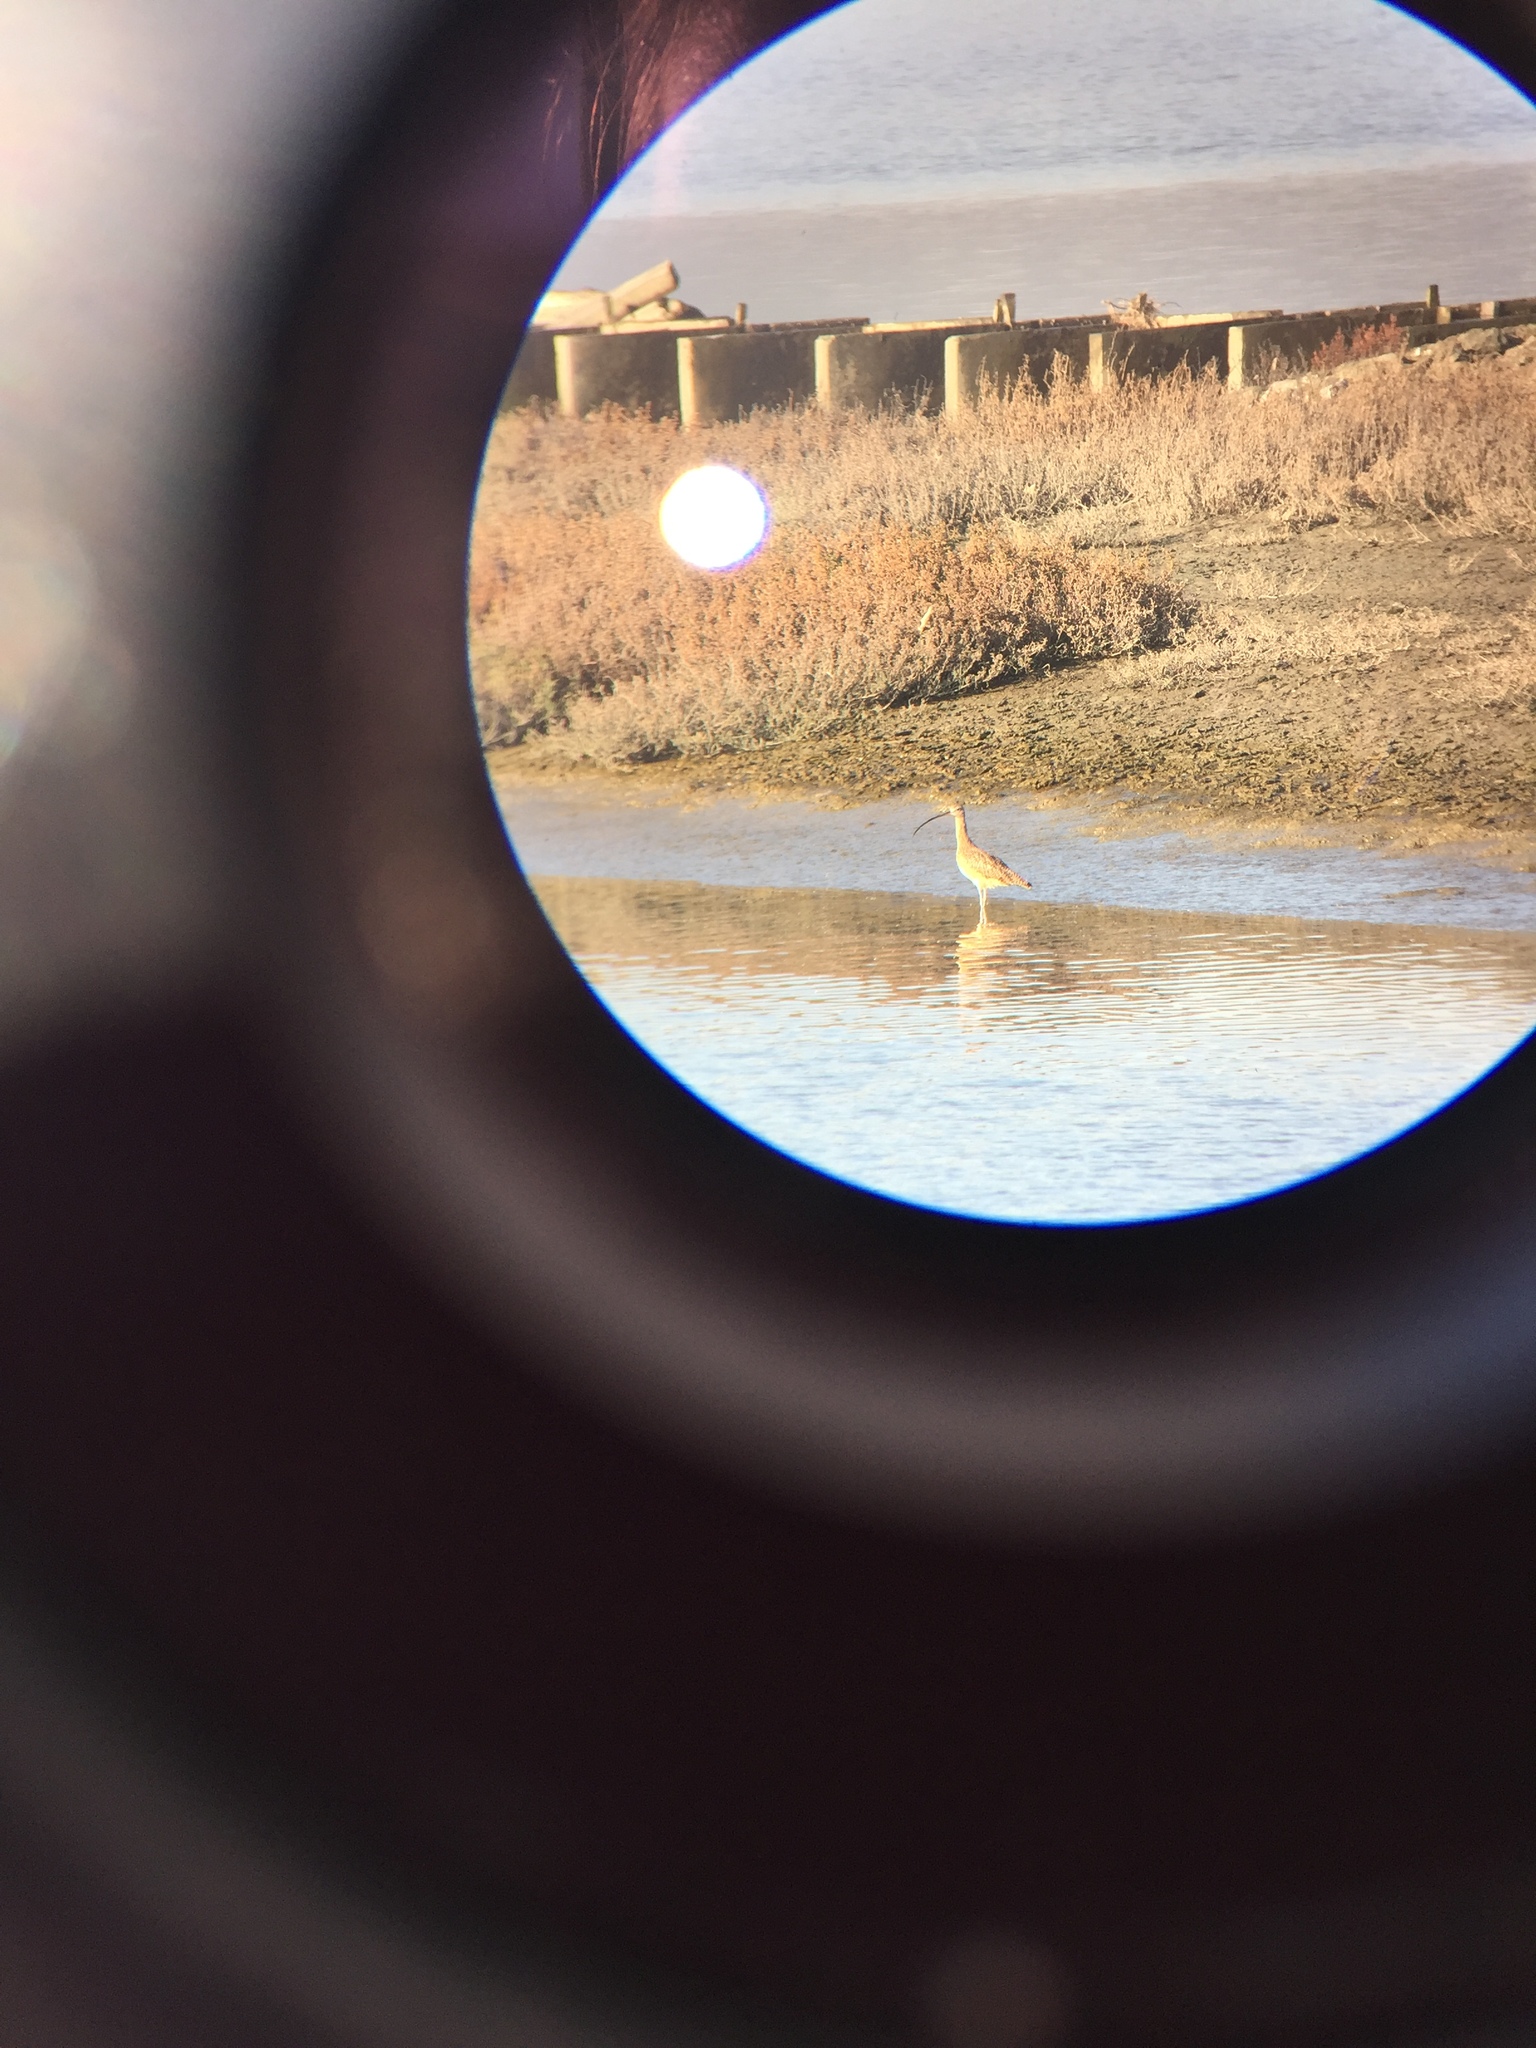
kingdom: Animalia
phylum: Chordata
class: Aves
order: Charadriiformes
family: Scolopacidae
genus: Numenius
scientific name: Numenius americanus
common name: Long-billed curlew
